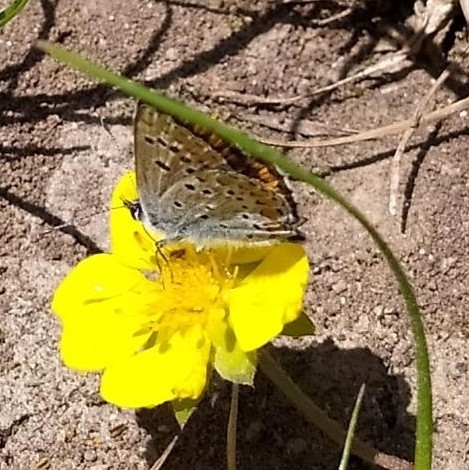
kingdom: Animalia
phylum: Arthropoda
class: Insecta
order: Lepidoptera
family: Lycaenidae
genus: Aricia
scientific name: Aricia agestis
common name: Brown argus
